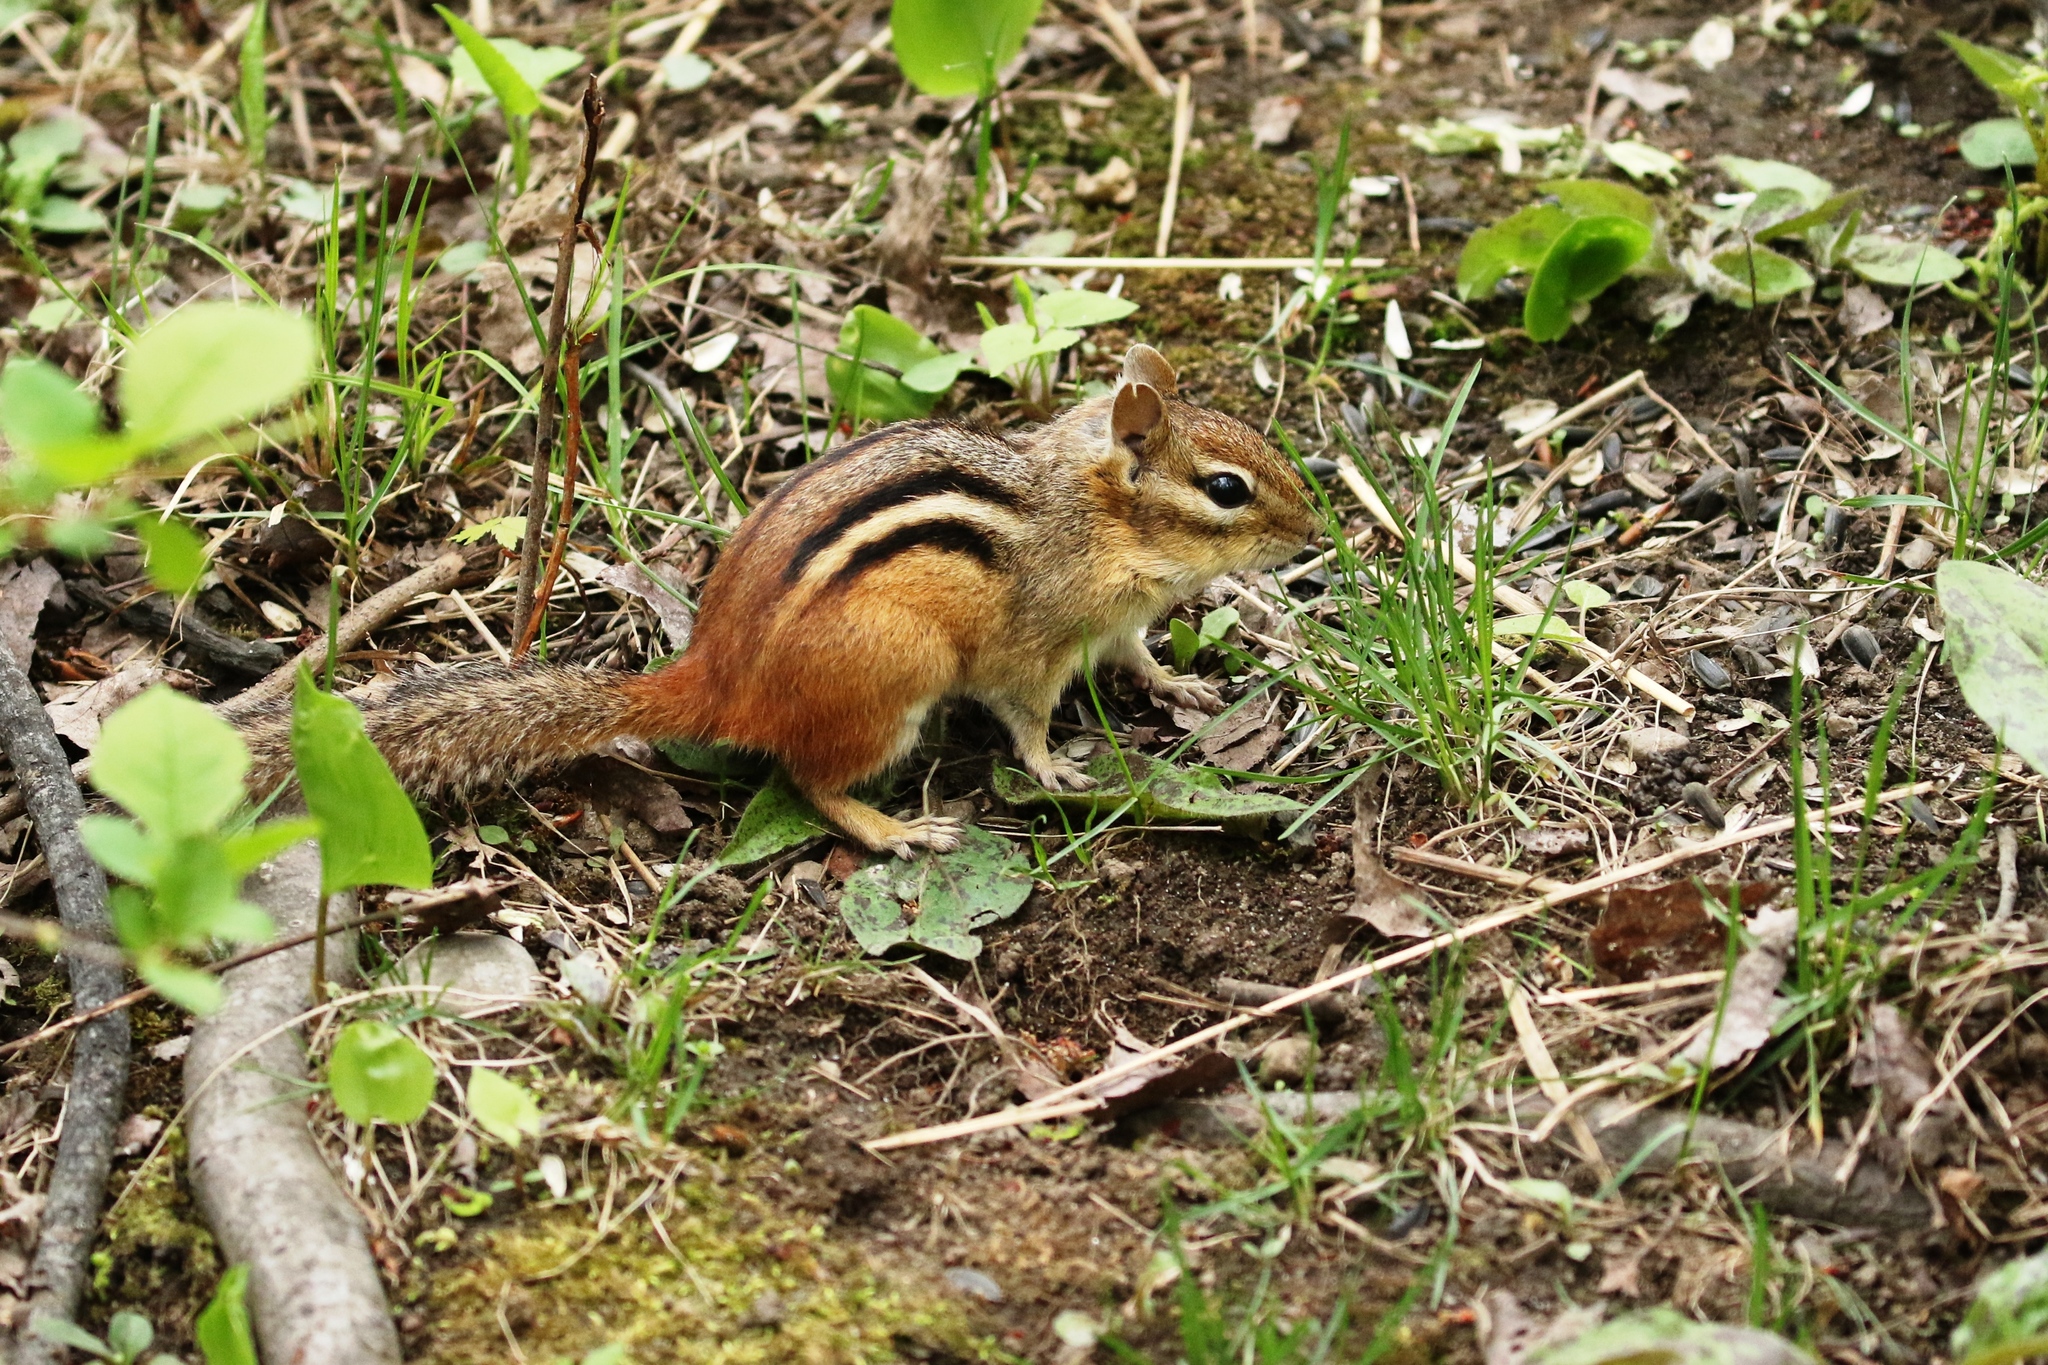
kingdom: Animalia
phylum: Chordata
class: Mammalia
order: Rodentia
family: Sciuridae
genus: Tamias
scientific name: Tamias striatus
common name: Eastern chipmunk
